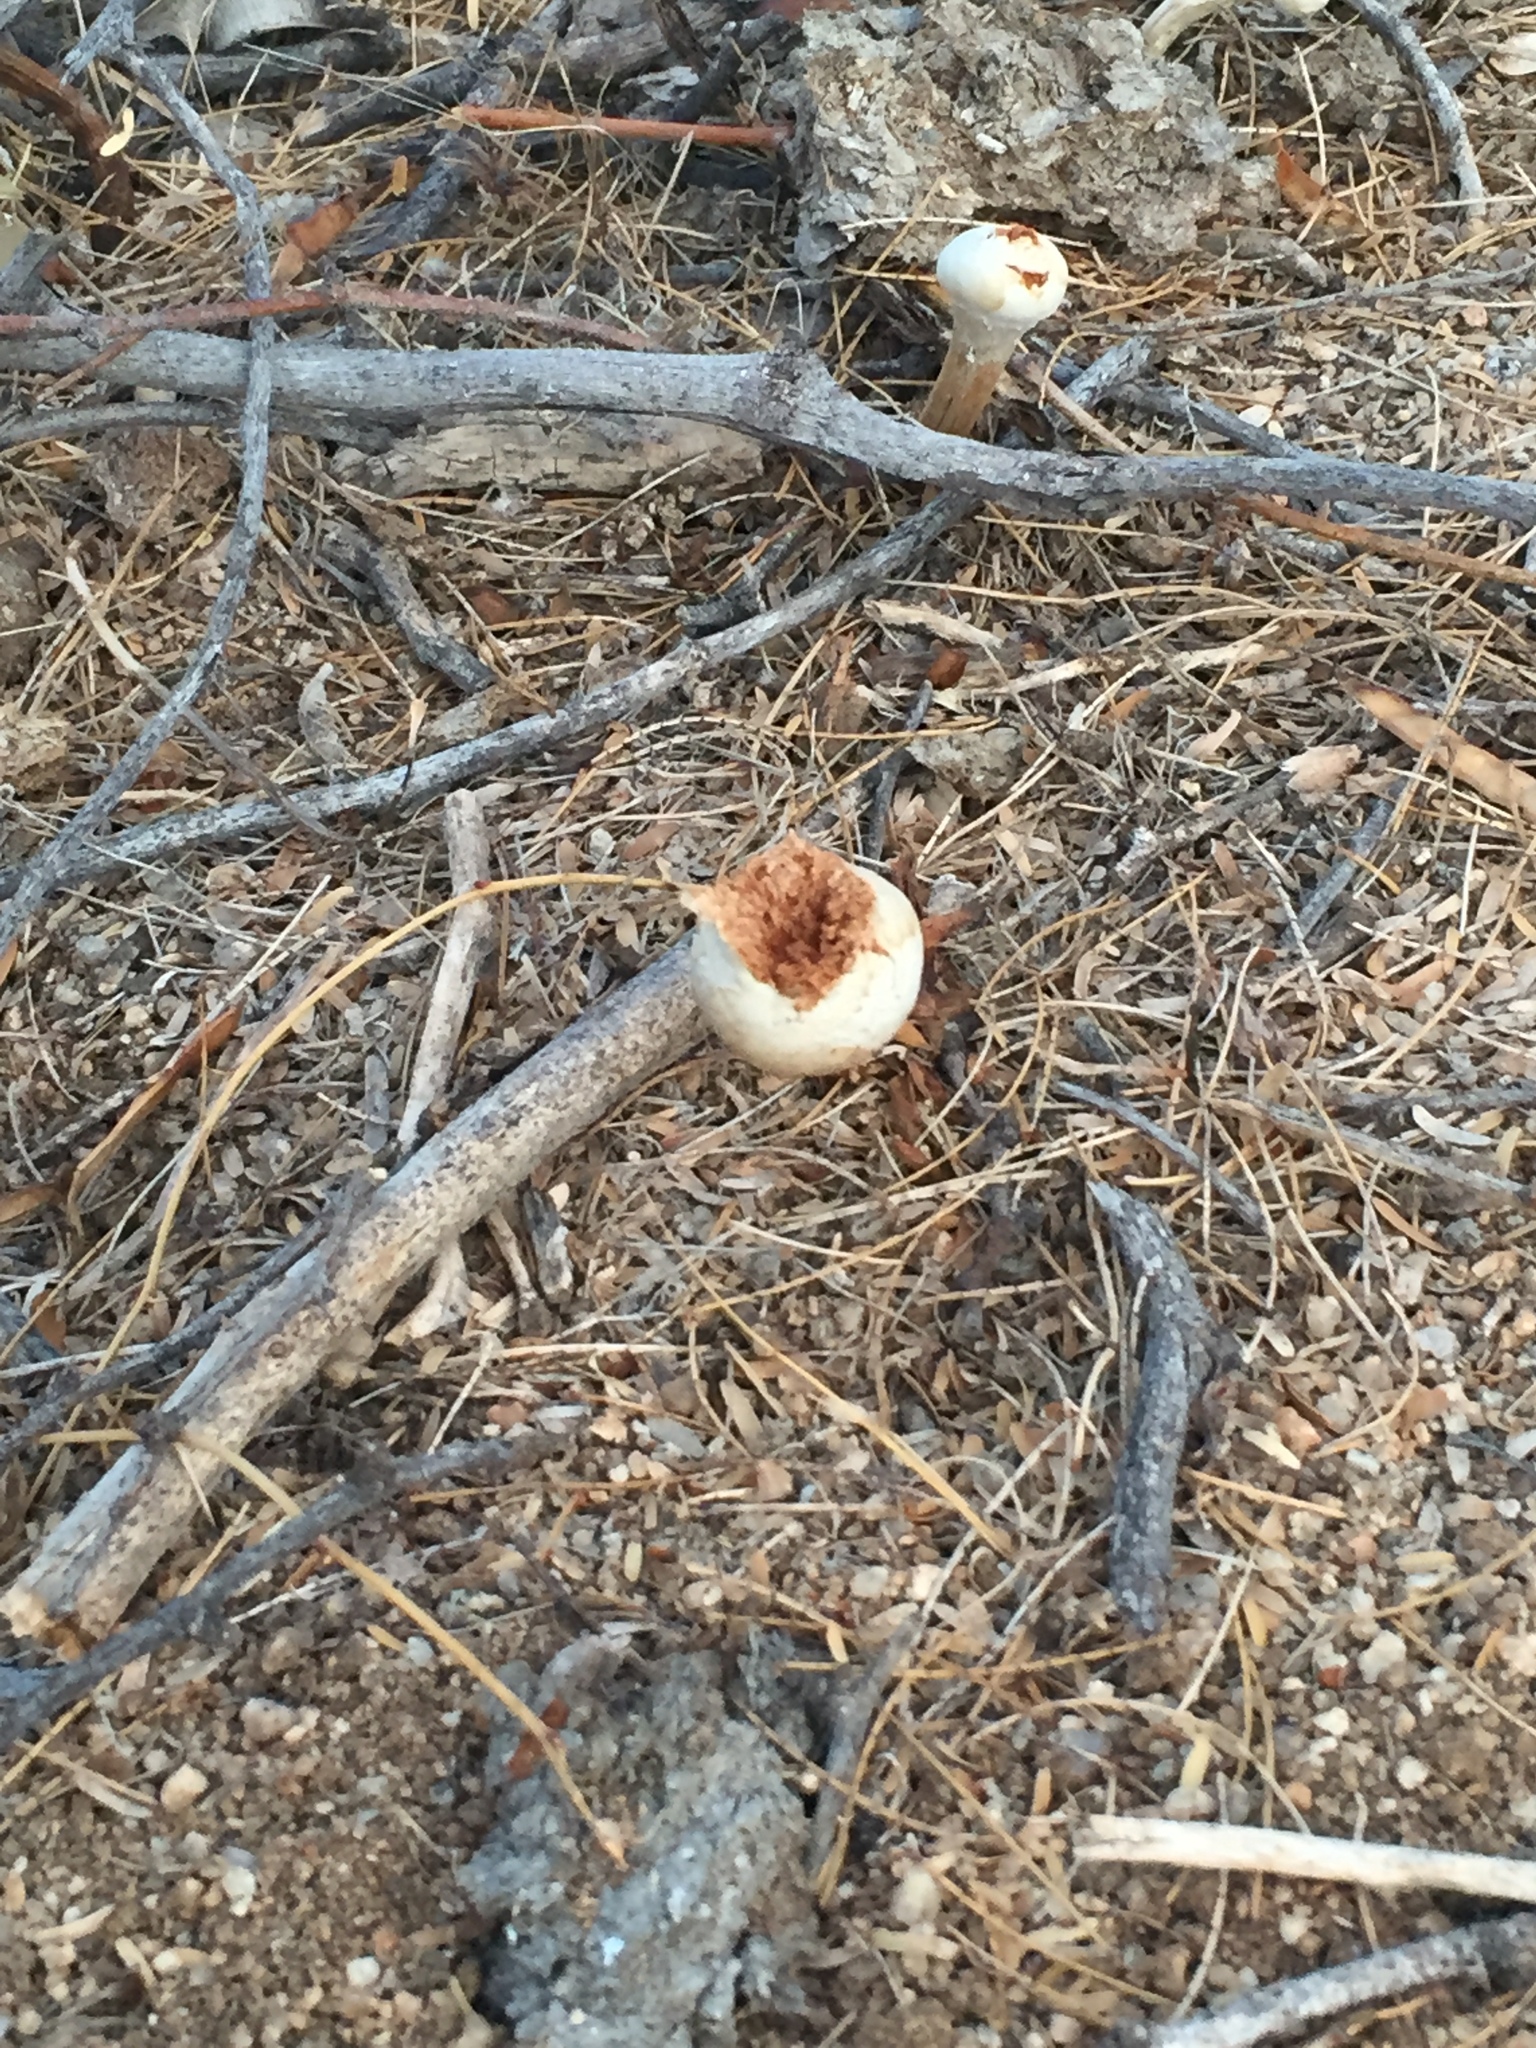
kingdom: Fungi
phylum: Basidiomycota
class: Agaricomycetes
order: Agaricales
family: Agaricaceae
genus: Chlamydopus
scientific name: Chlamydopus meyenianus
